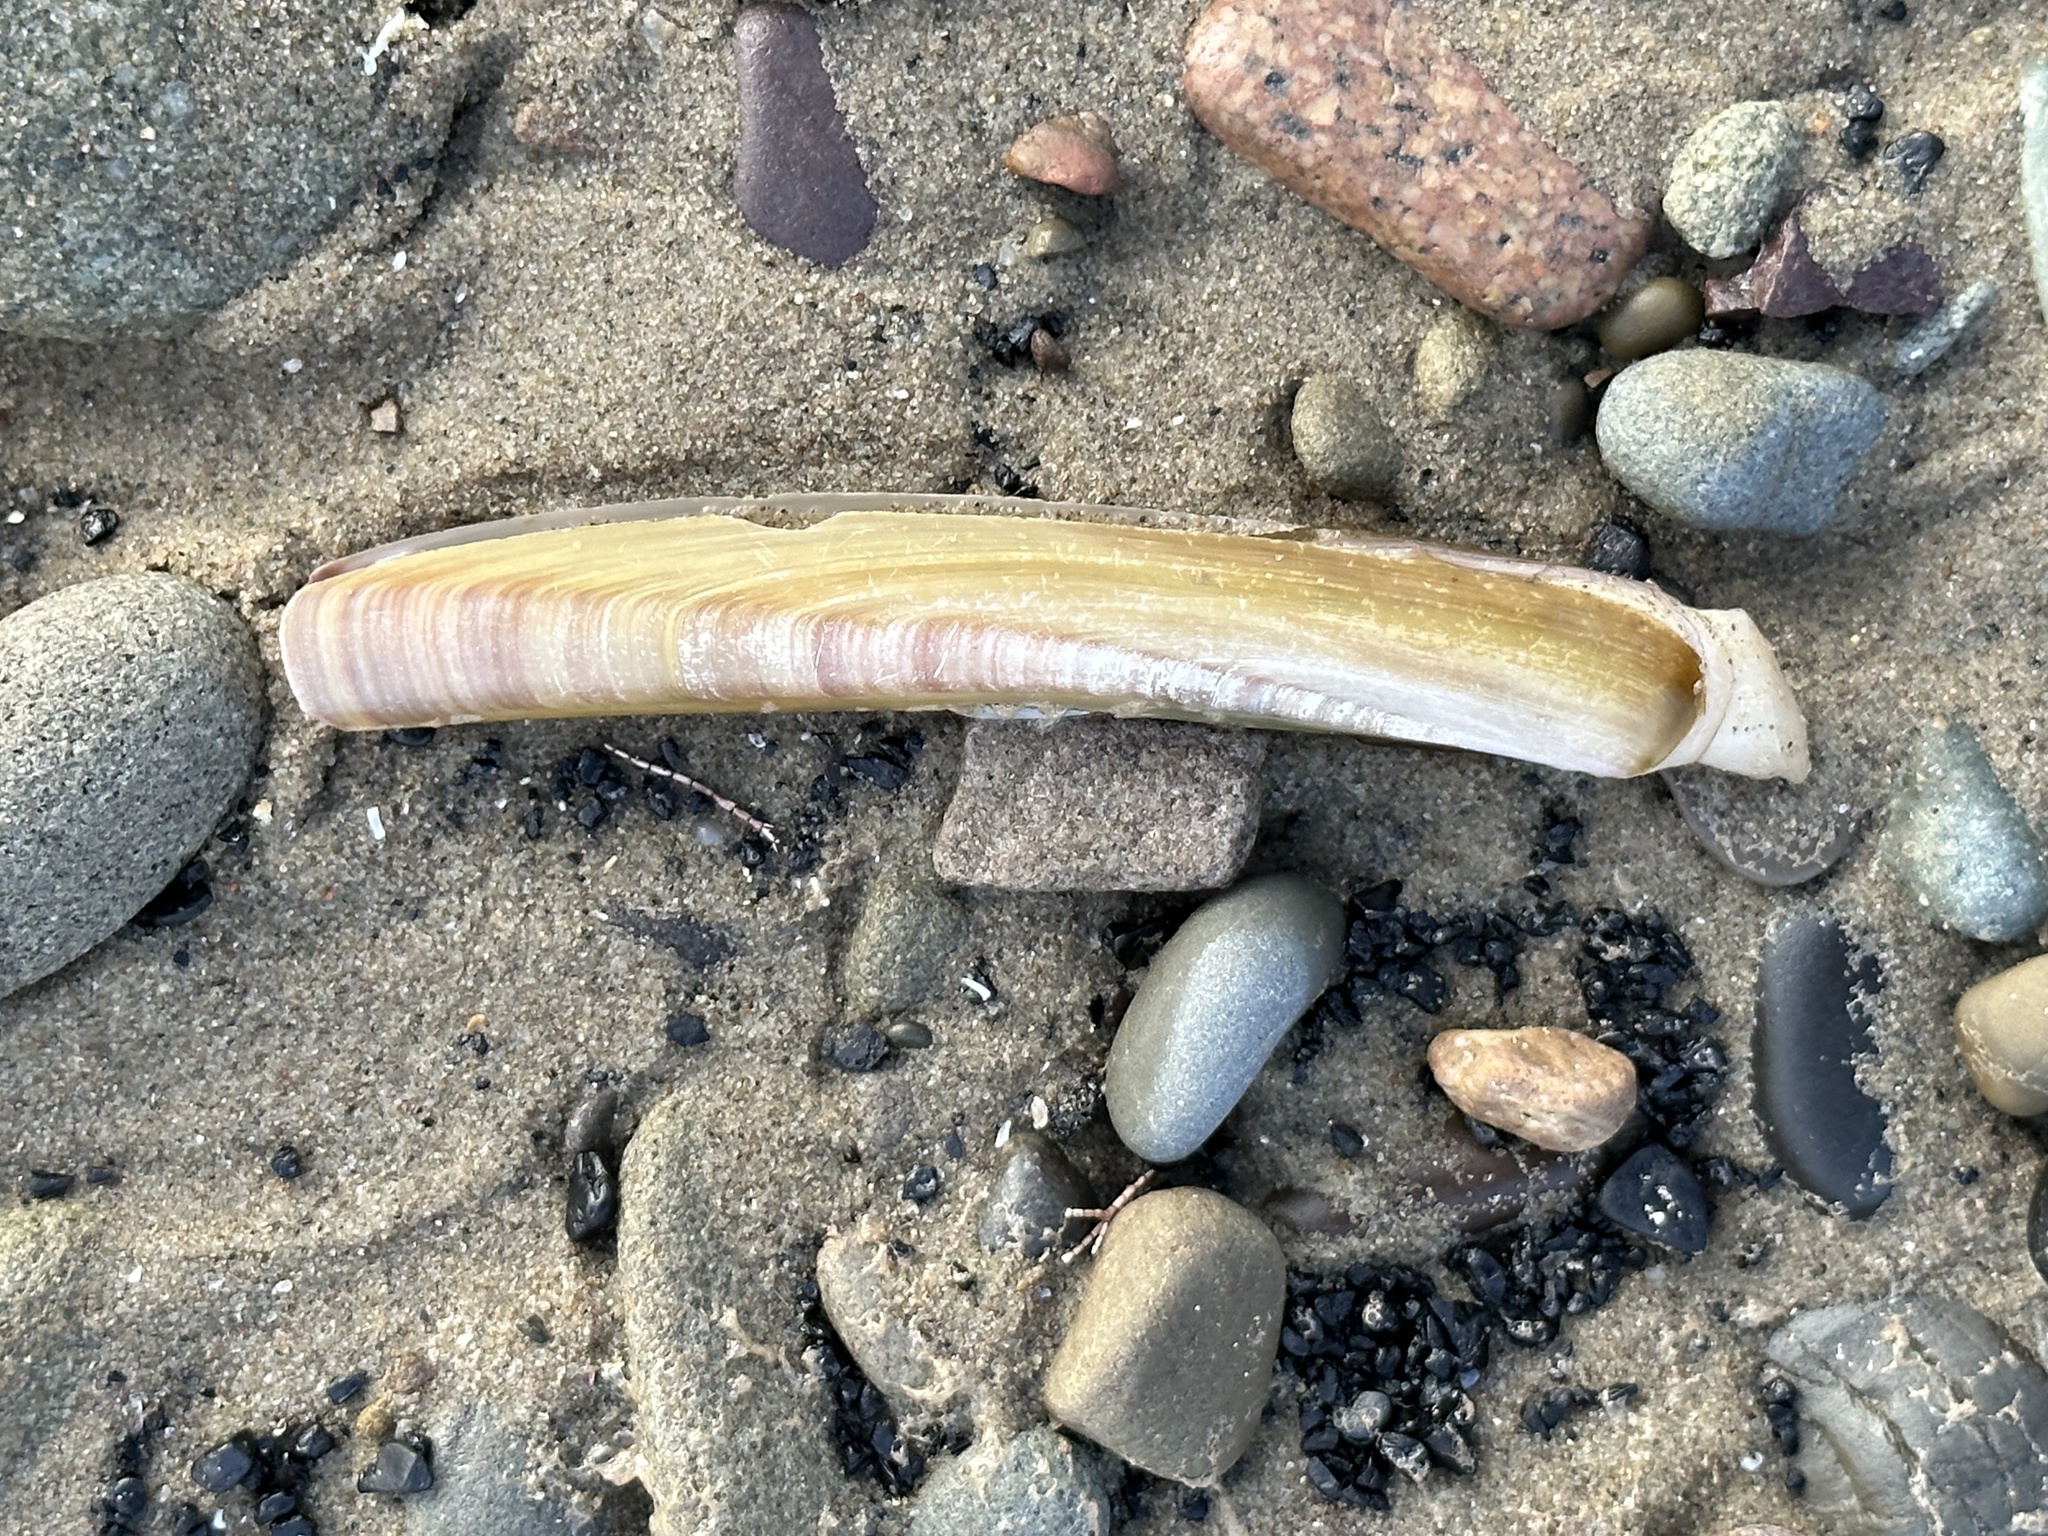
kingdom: Animalia
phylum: Mollusca
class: Bivalvia
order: Adapedonta
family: Pharidae
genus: Ensis
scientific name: Ensis leei
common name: American jack knife clam
